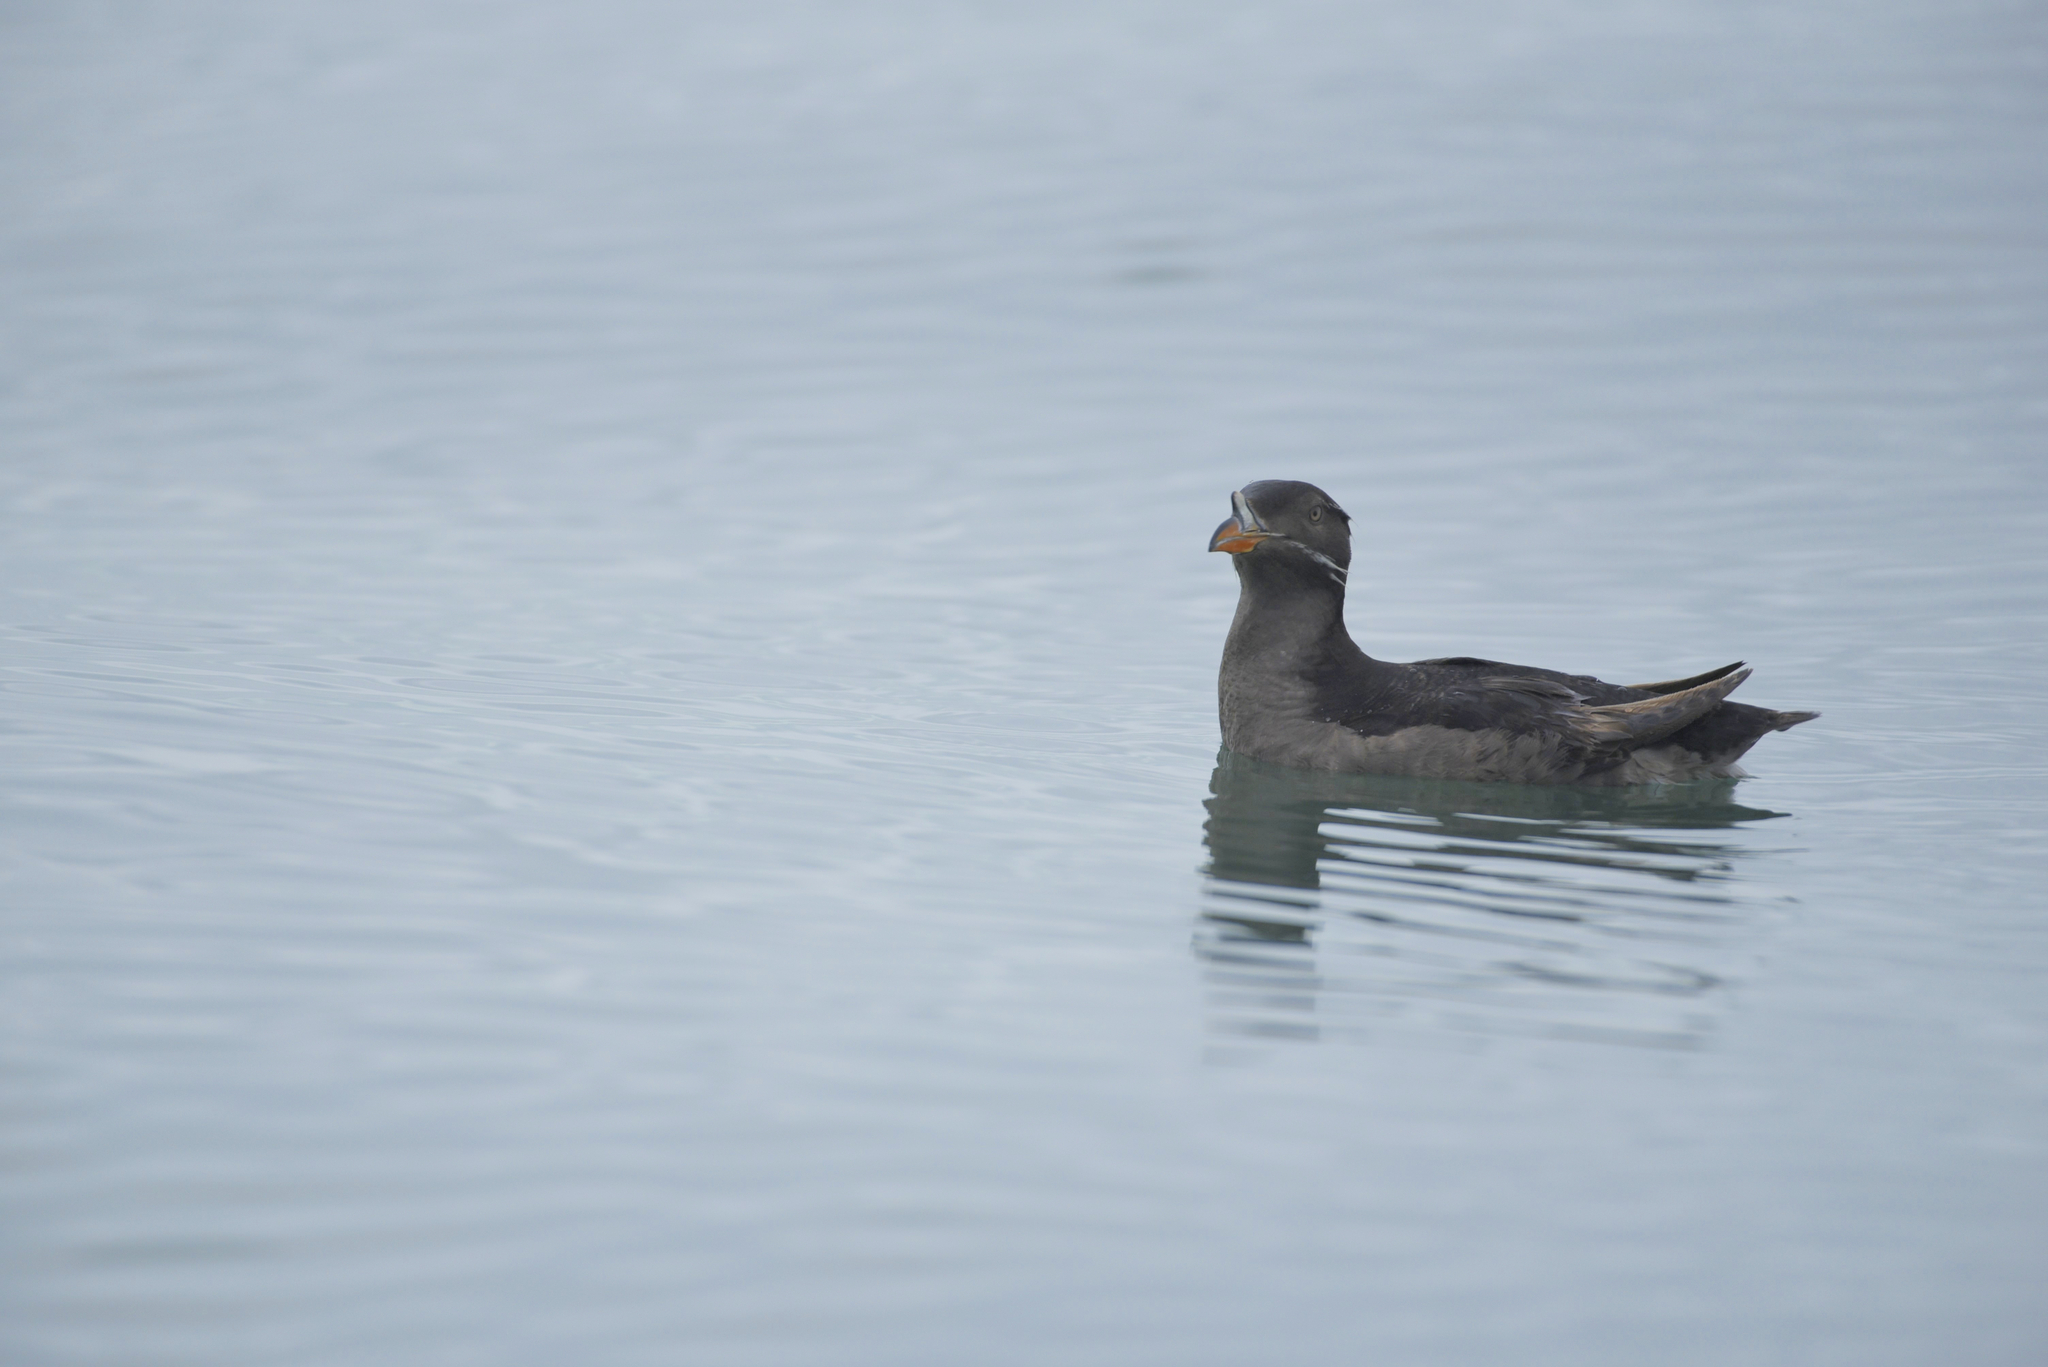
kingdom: Animalia
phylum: Chordata
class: Aves
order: Charadriiformes
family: Alcidae
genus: Cerorhinca
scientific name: Cerorhinca monocerata
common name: Rhinoceros auklet
